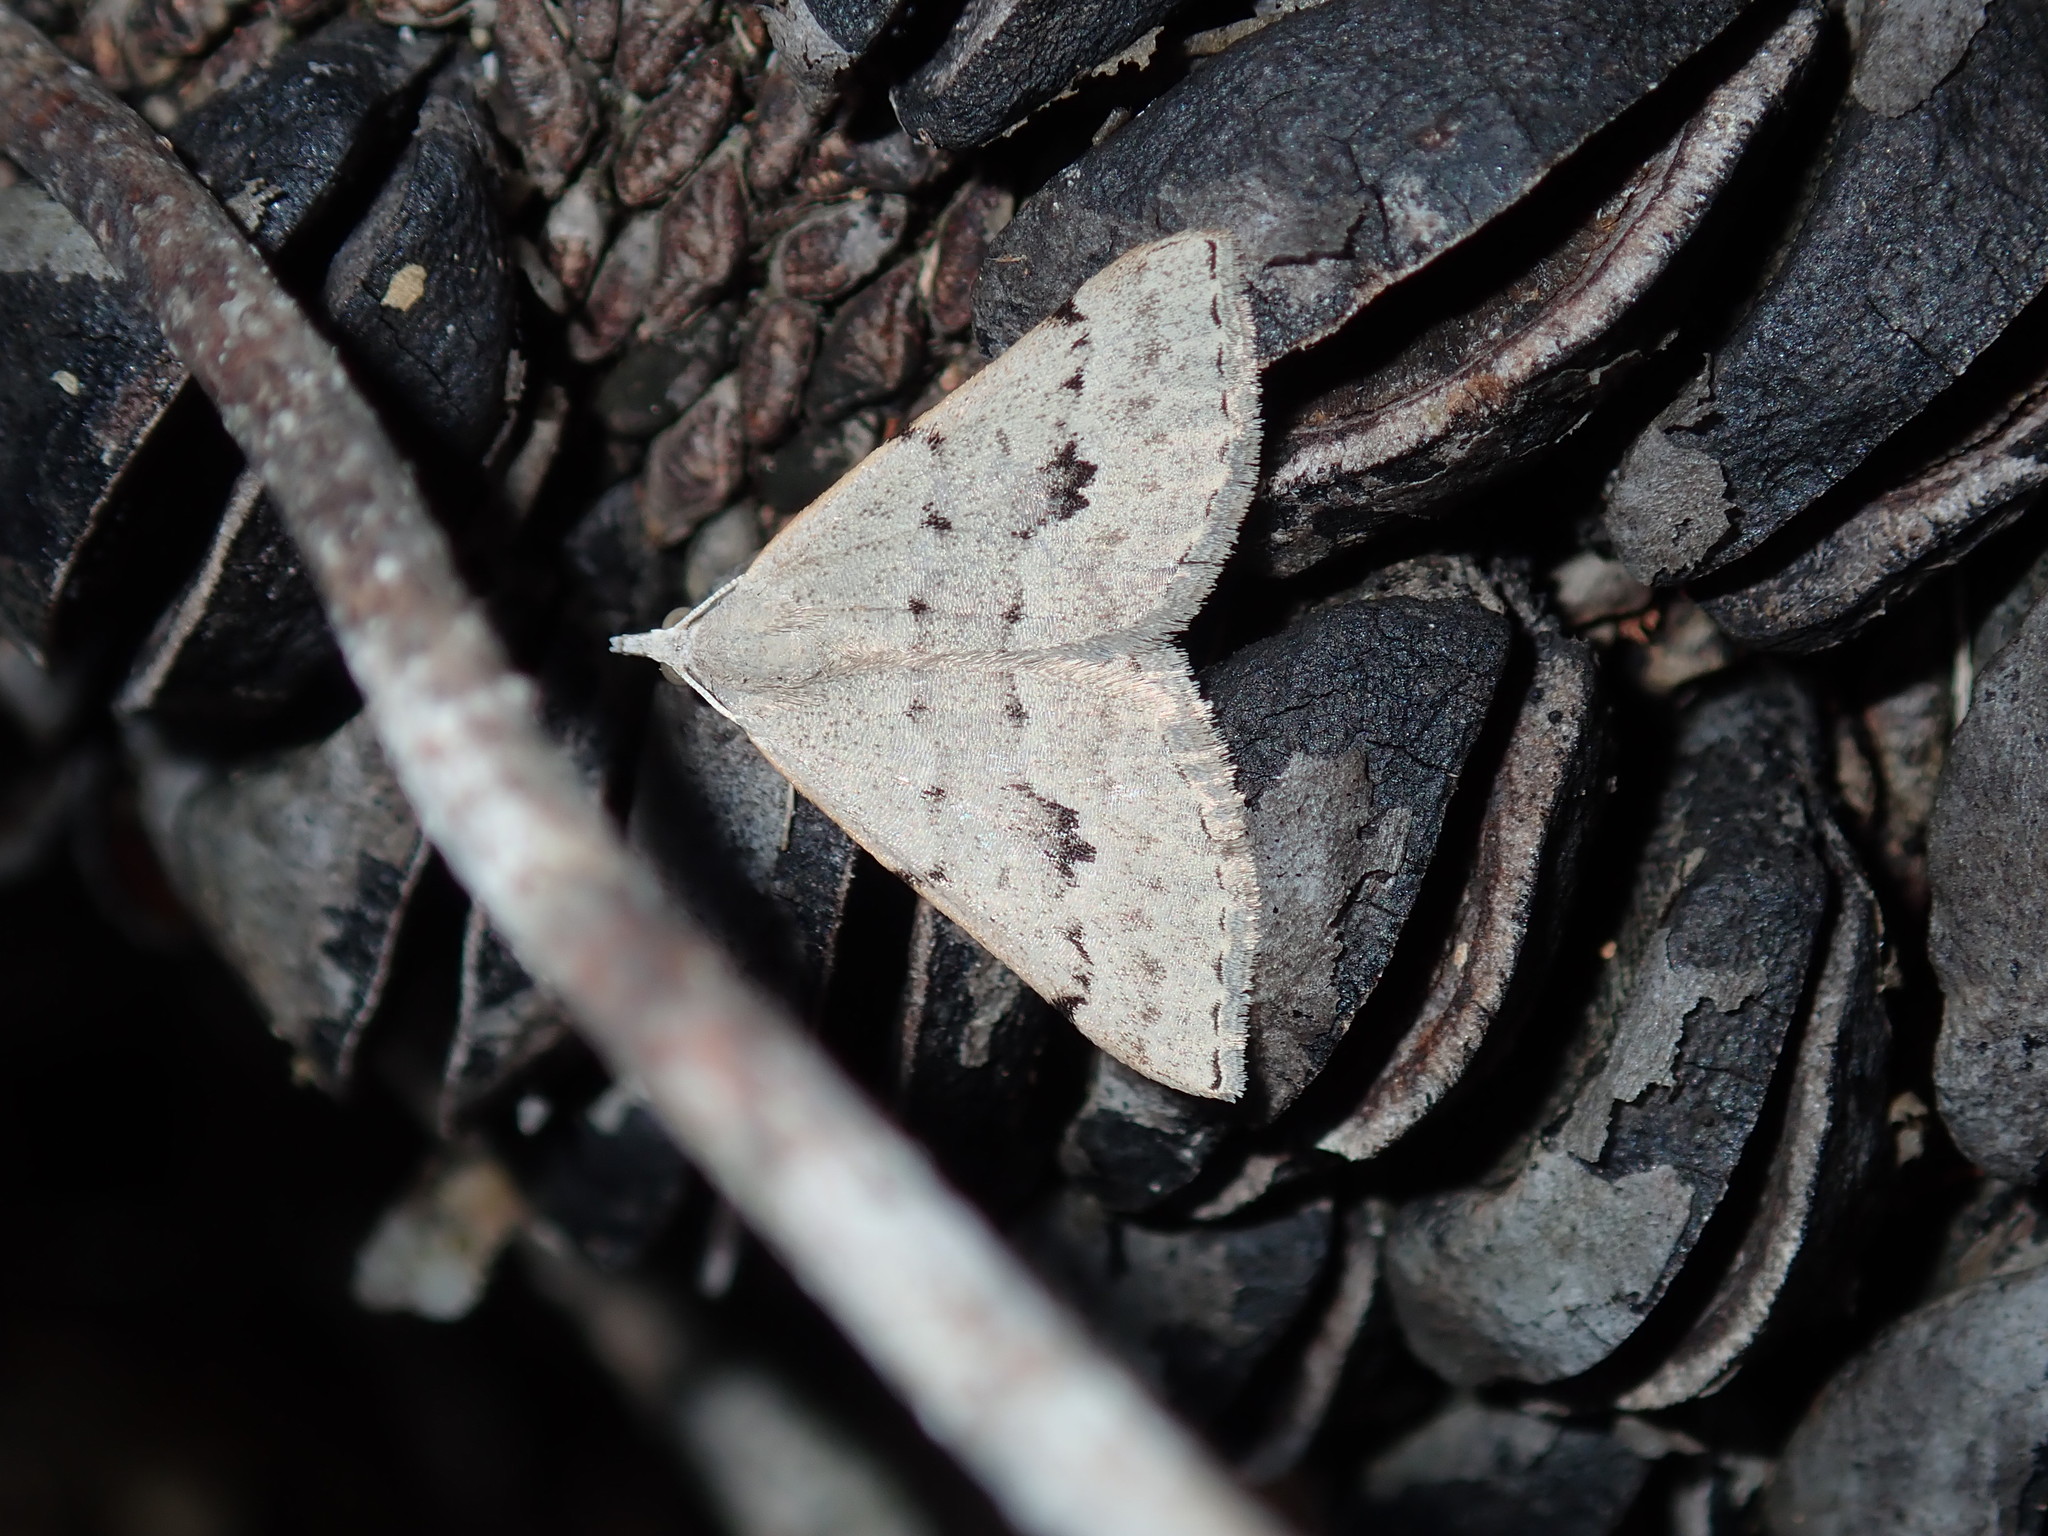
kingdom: Animalia
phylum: Arthropoda
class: Insecta
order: Lepidoptera
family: Geometridae
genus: Dichromodes
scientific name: Dichromodes estigmaria
